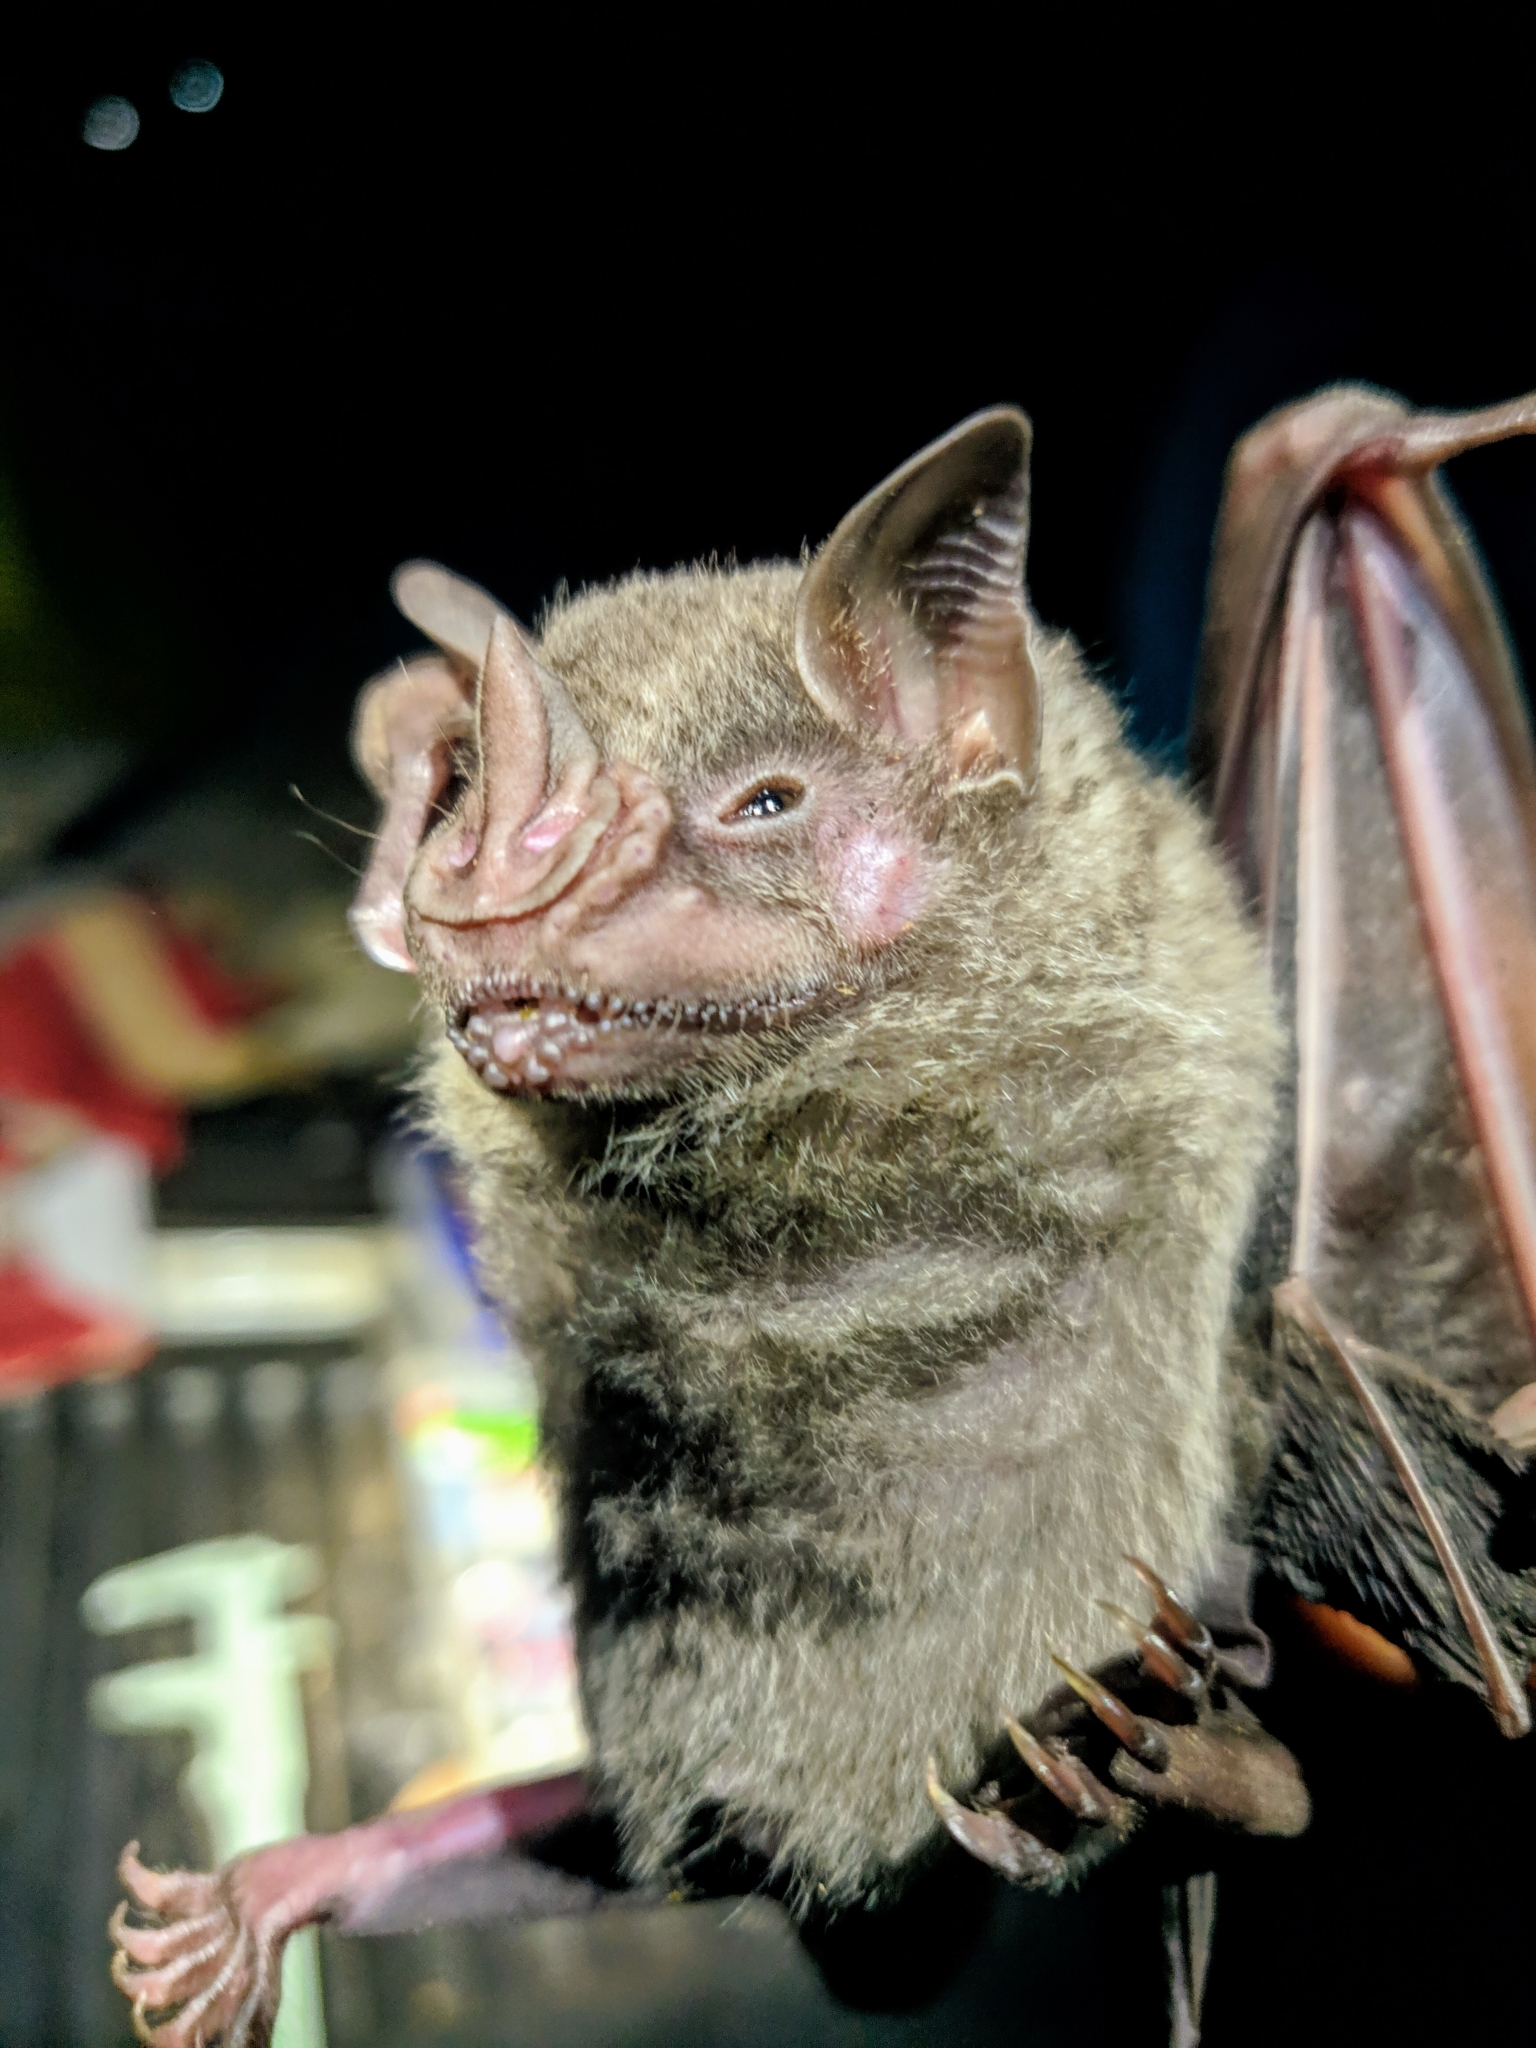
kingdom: Animalia
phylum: Chordata
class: Mammalia
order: Chiroptera
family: Phyllostomidae
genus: Artibeus
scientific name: Artibeus jamaicensis
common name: Jamaican fruit-eating bat
